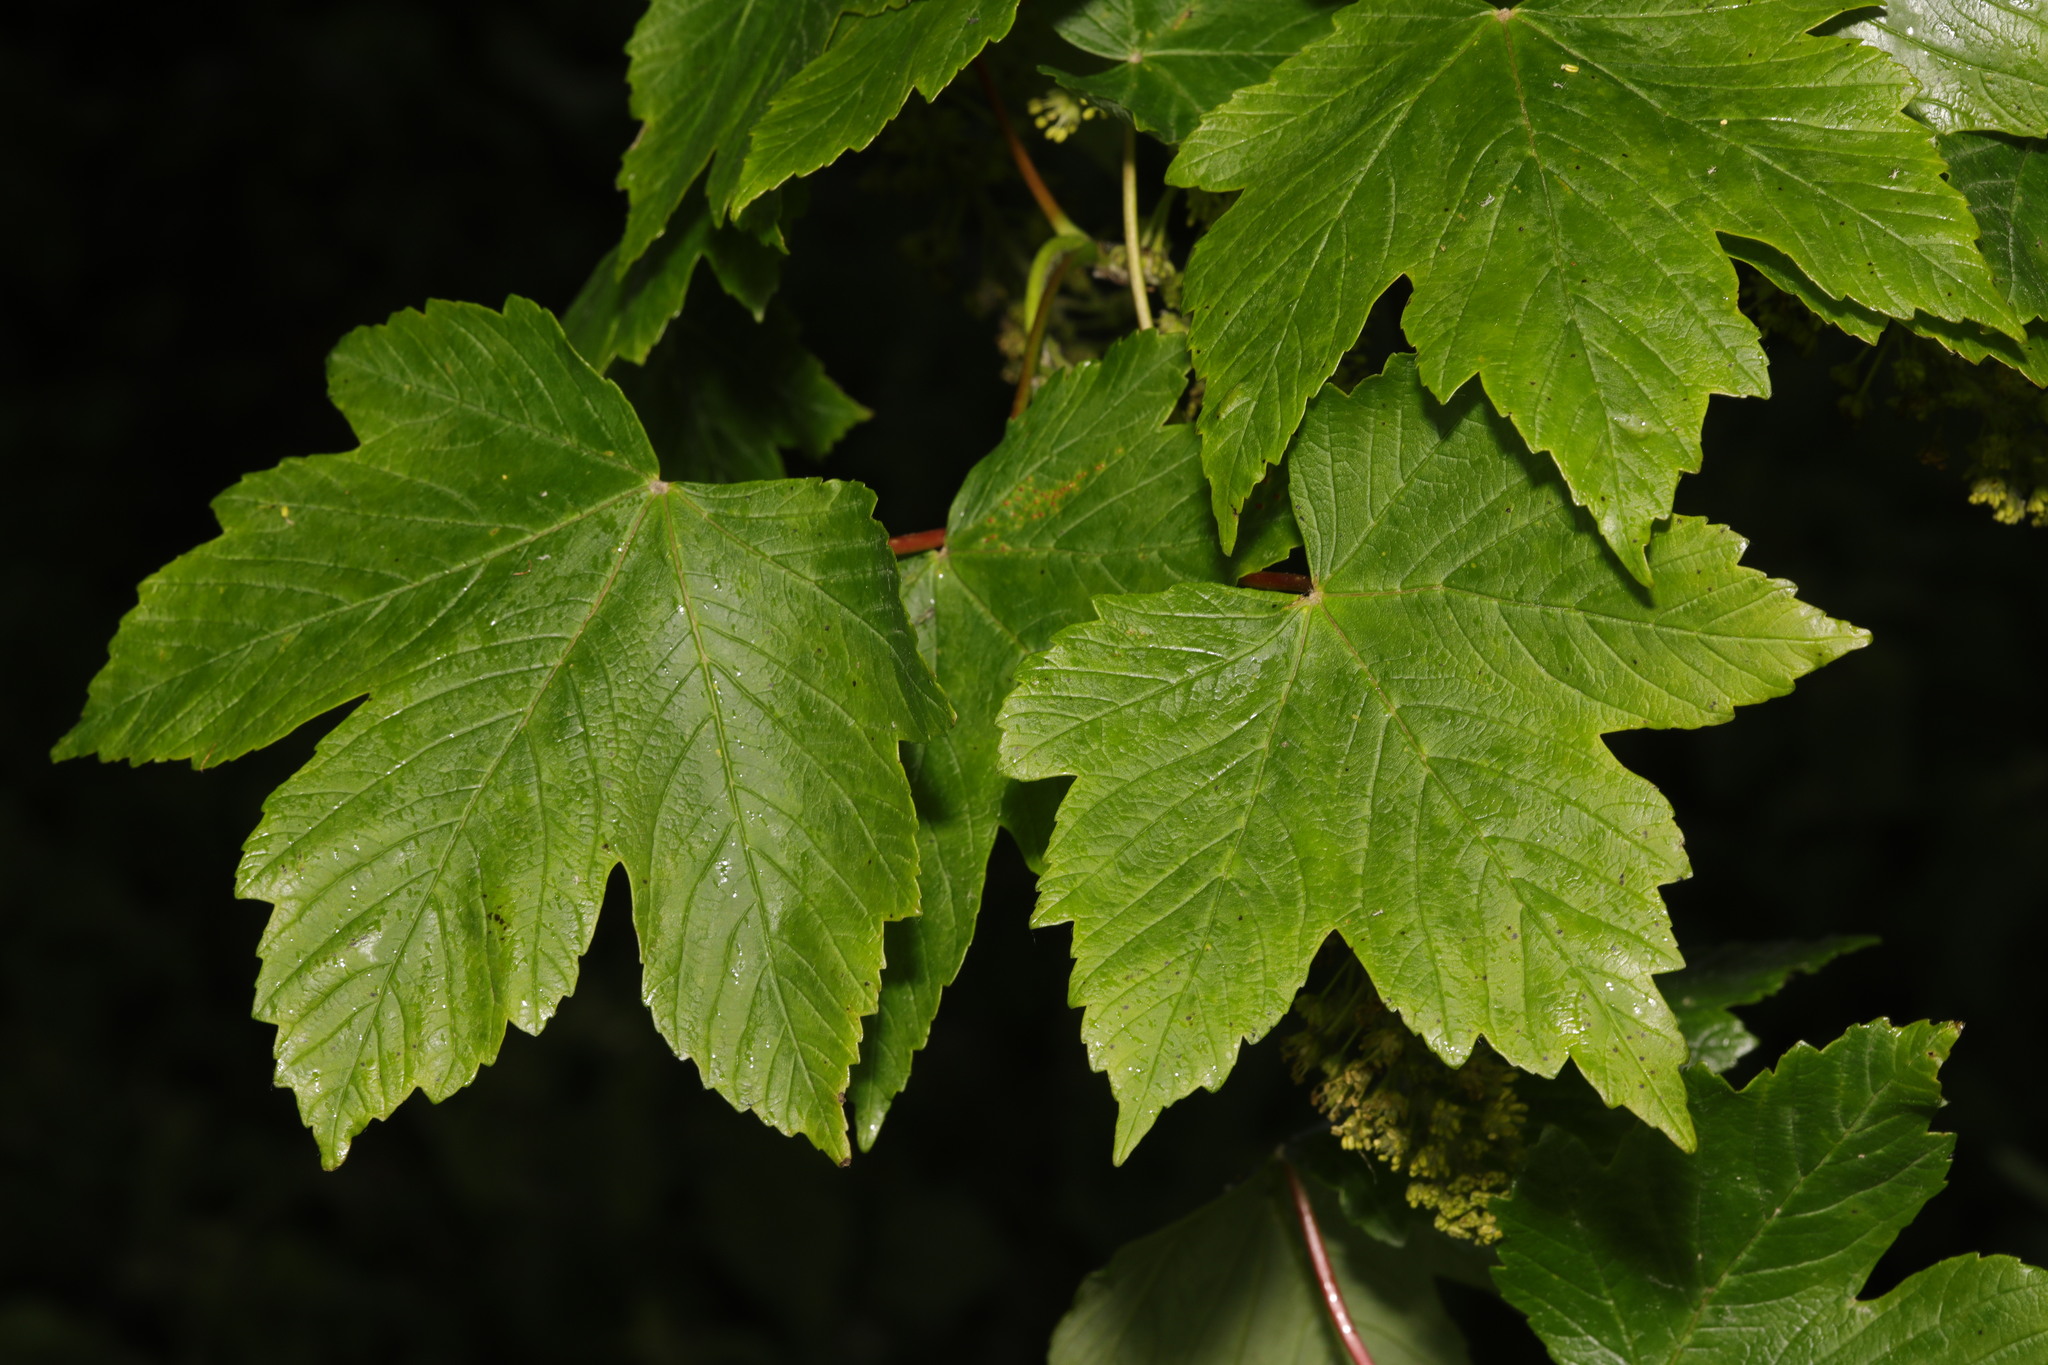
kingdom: Plantae
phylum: Tracheophyta
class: Magnoliopsida
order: Sapindales
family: Sapindaceae
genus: Acer
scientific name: Acer pseudoplatanus
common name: Sycamore
